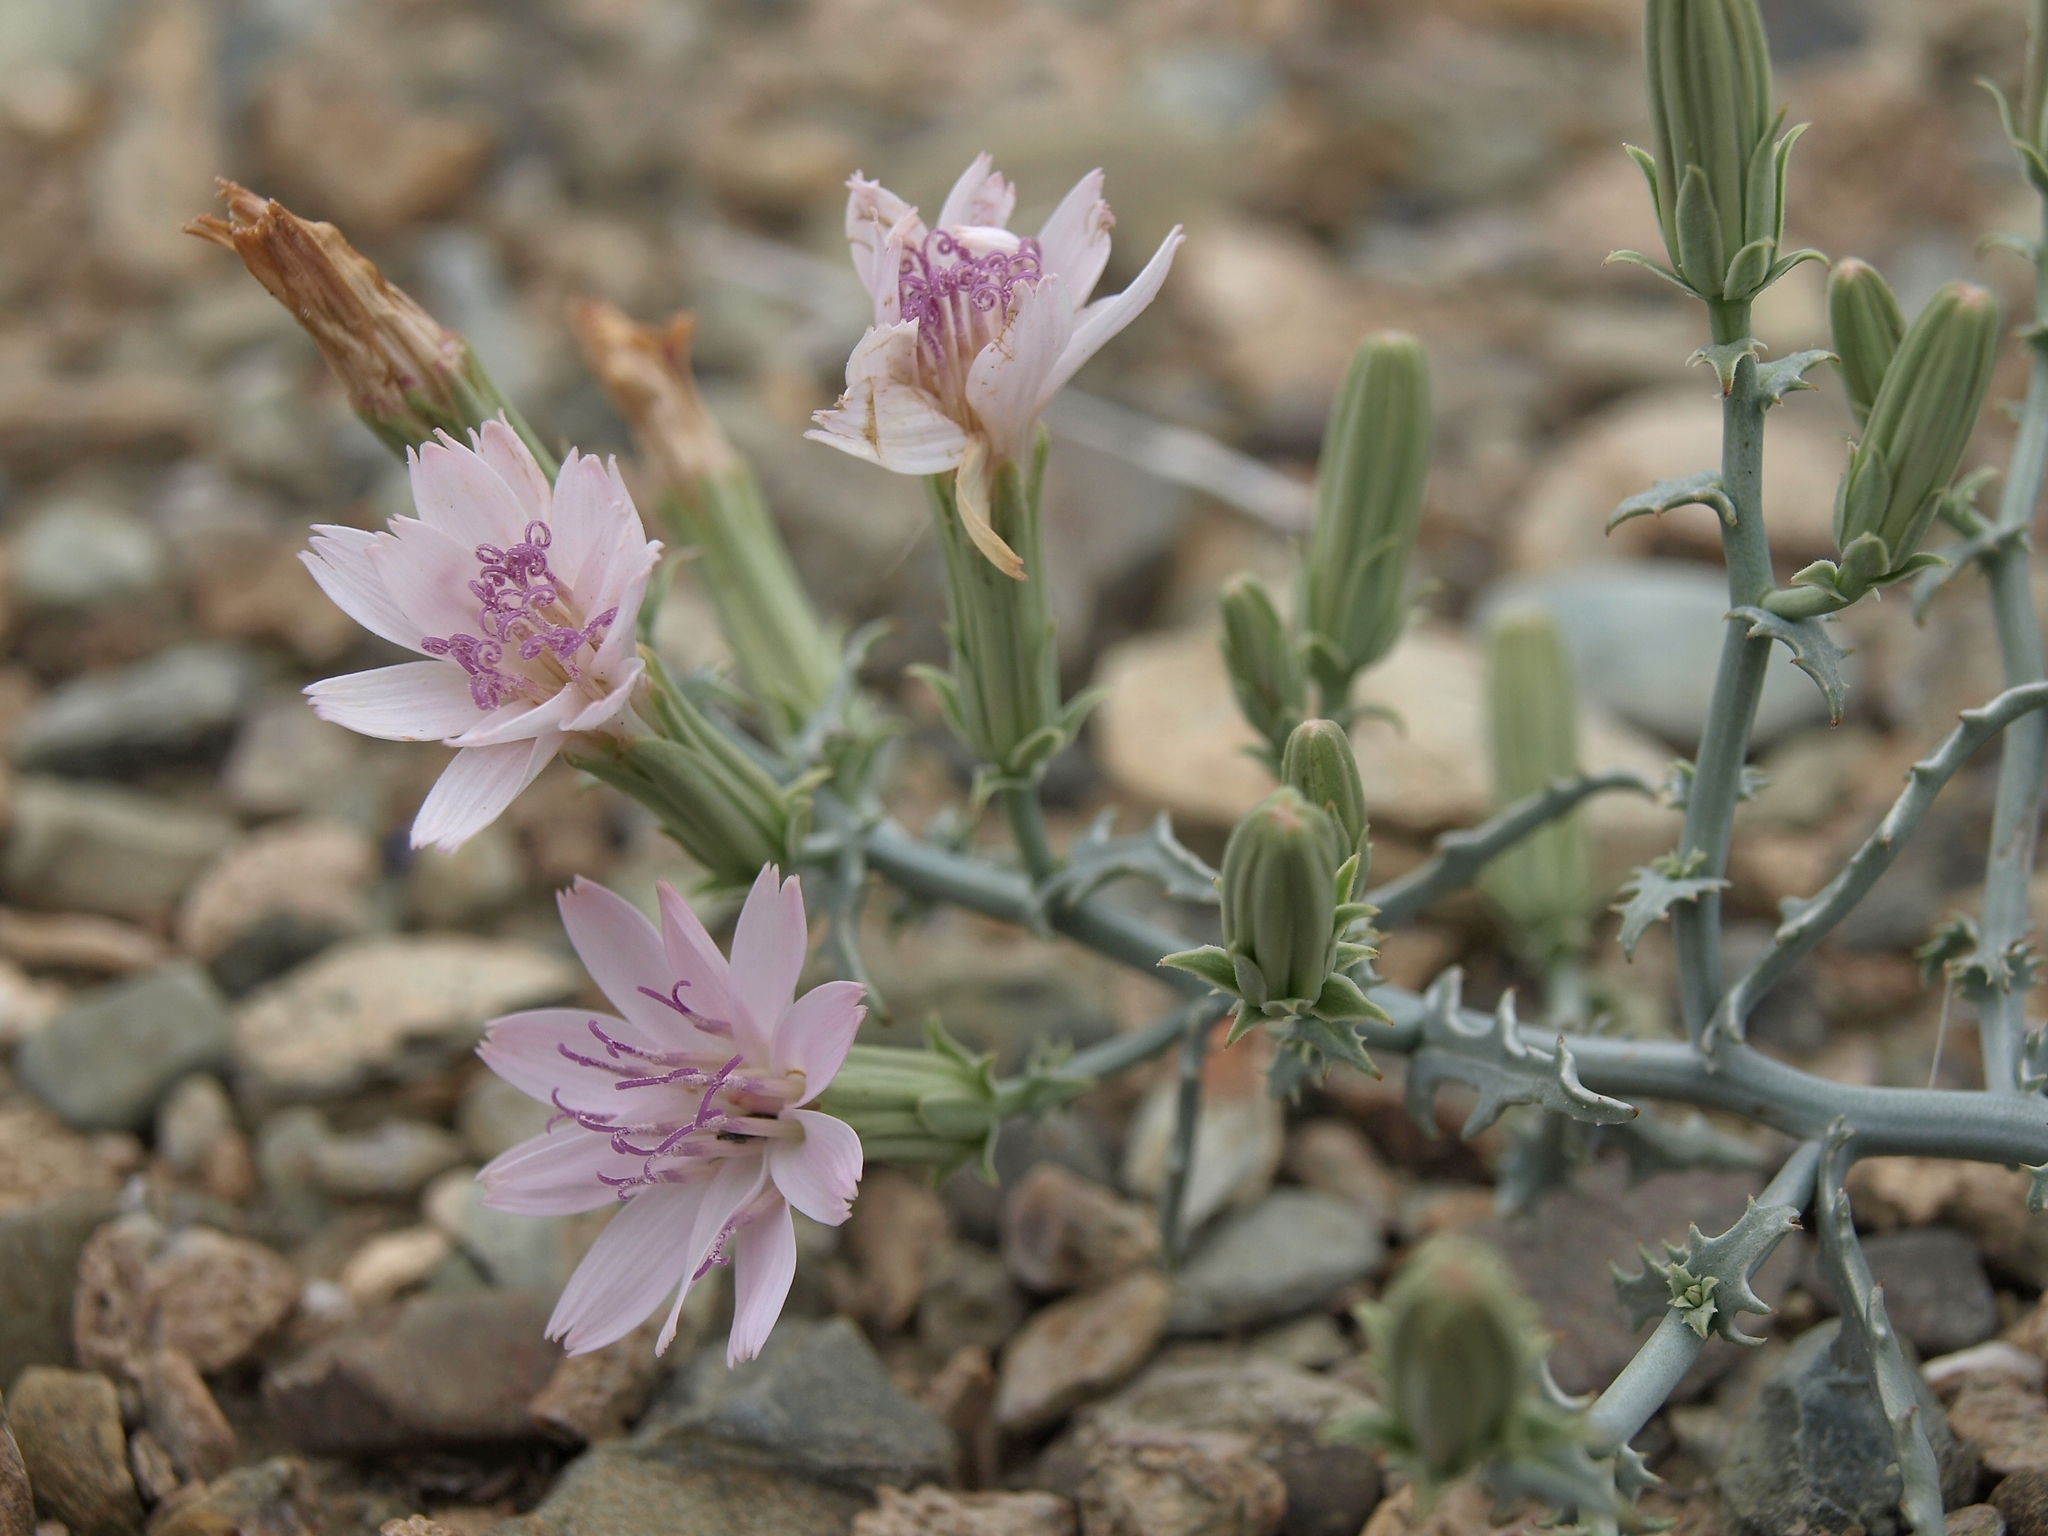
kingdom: Plantae
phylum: Tracheophyta
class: Magnoliopsida
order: Asterales
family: Asteraceae
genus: Stephanomeria
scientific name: Stephanomeria parryi
